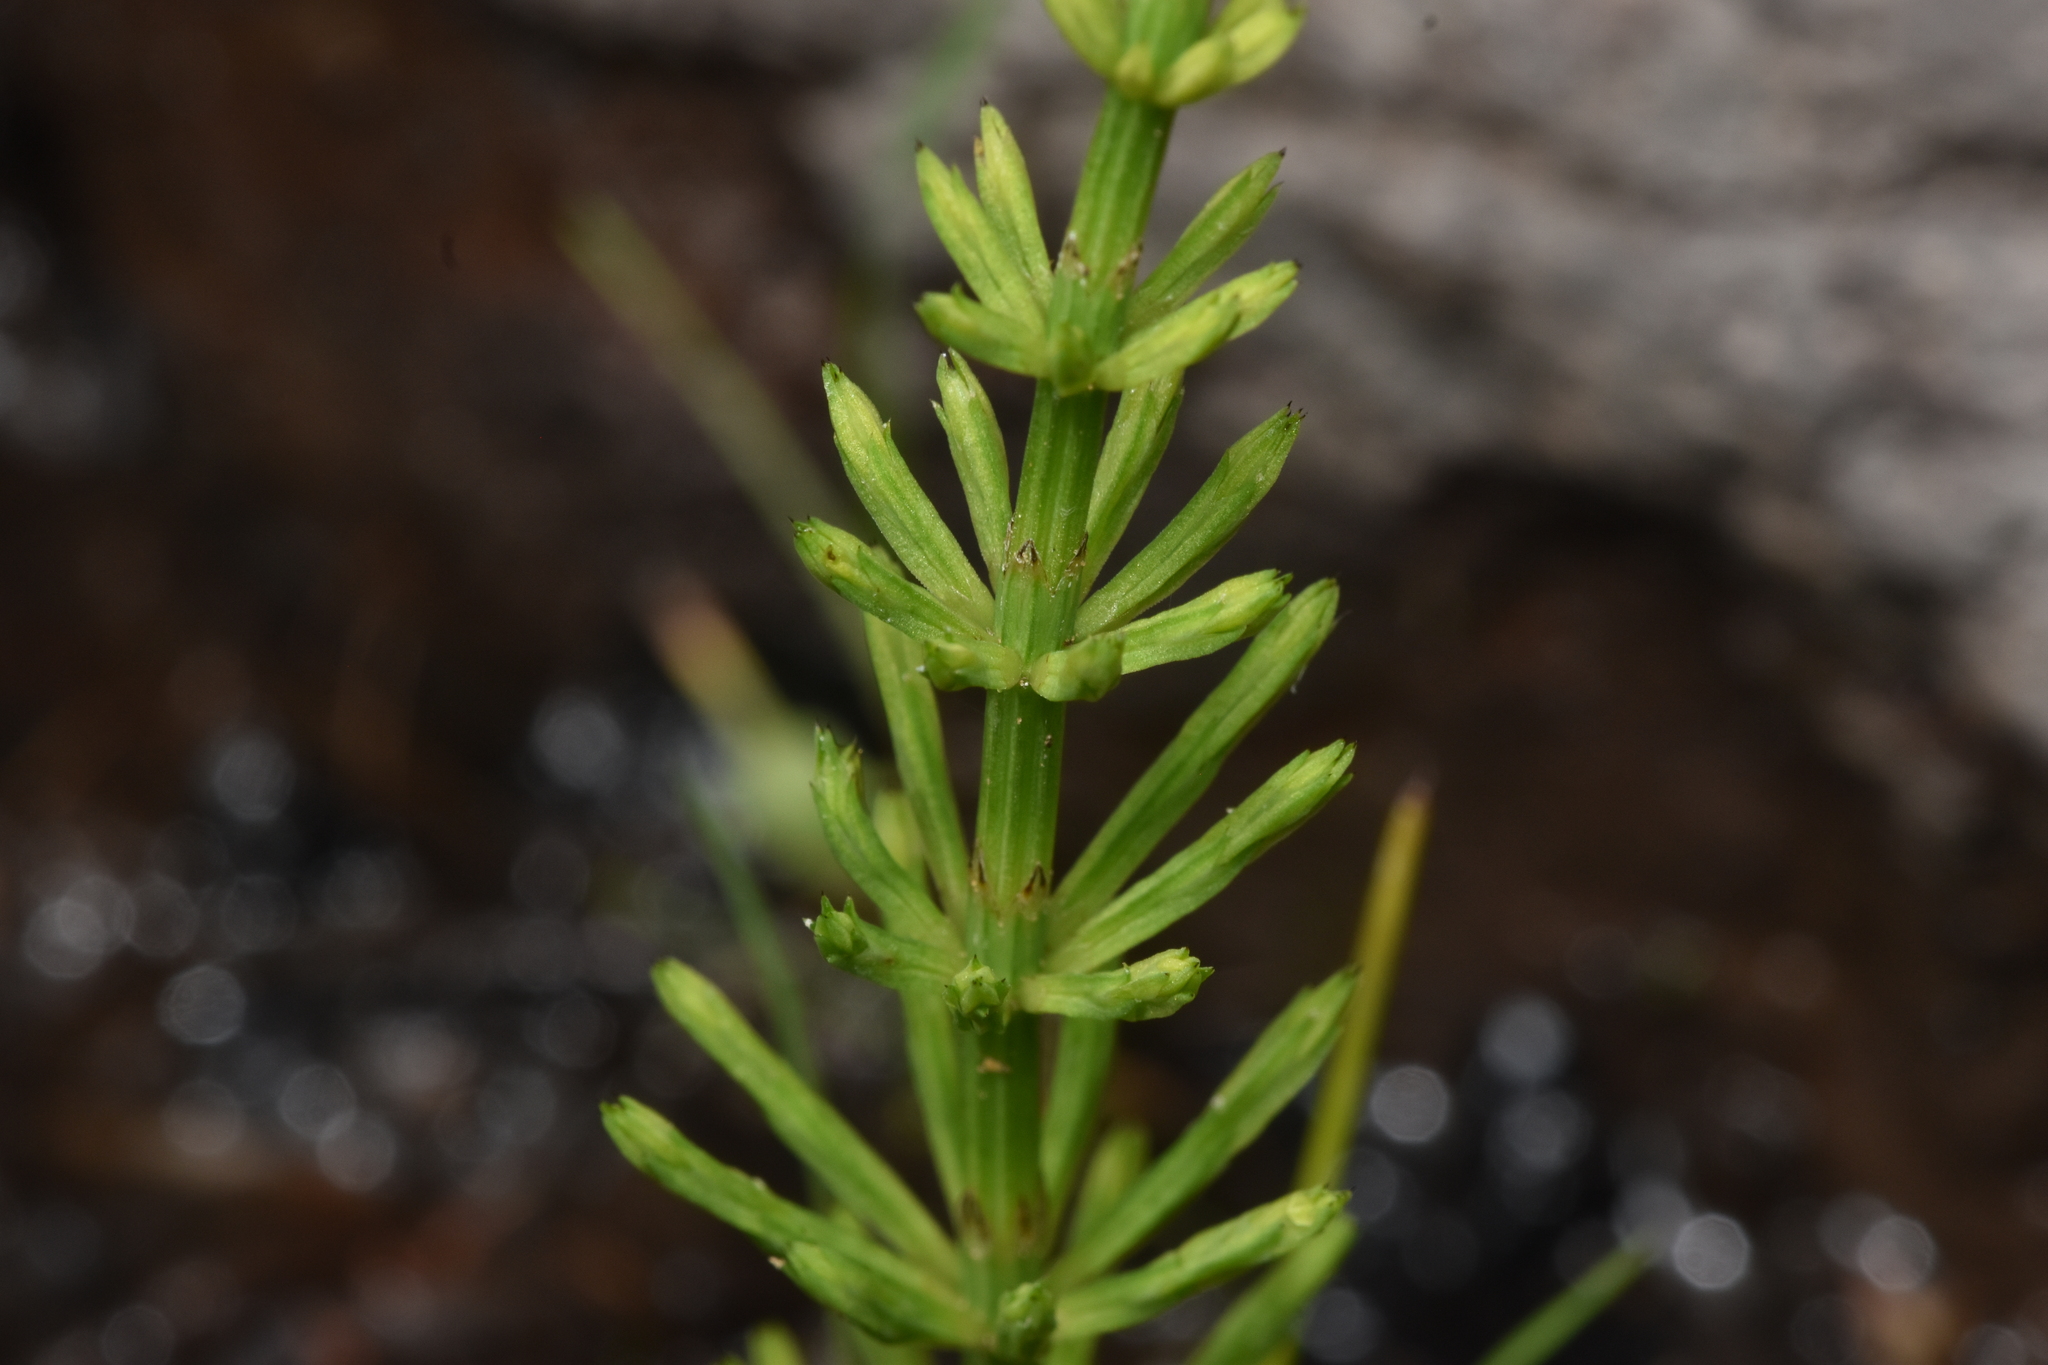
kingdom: Plantae
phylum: Tracheophyta
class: Polypodiopsida
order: Equisetales
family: Equisetaceae
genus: Equisetum
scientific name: Equisetum arvense
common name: Field horsetail
